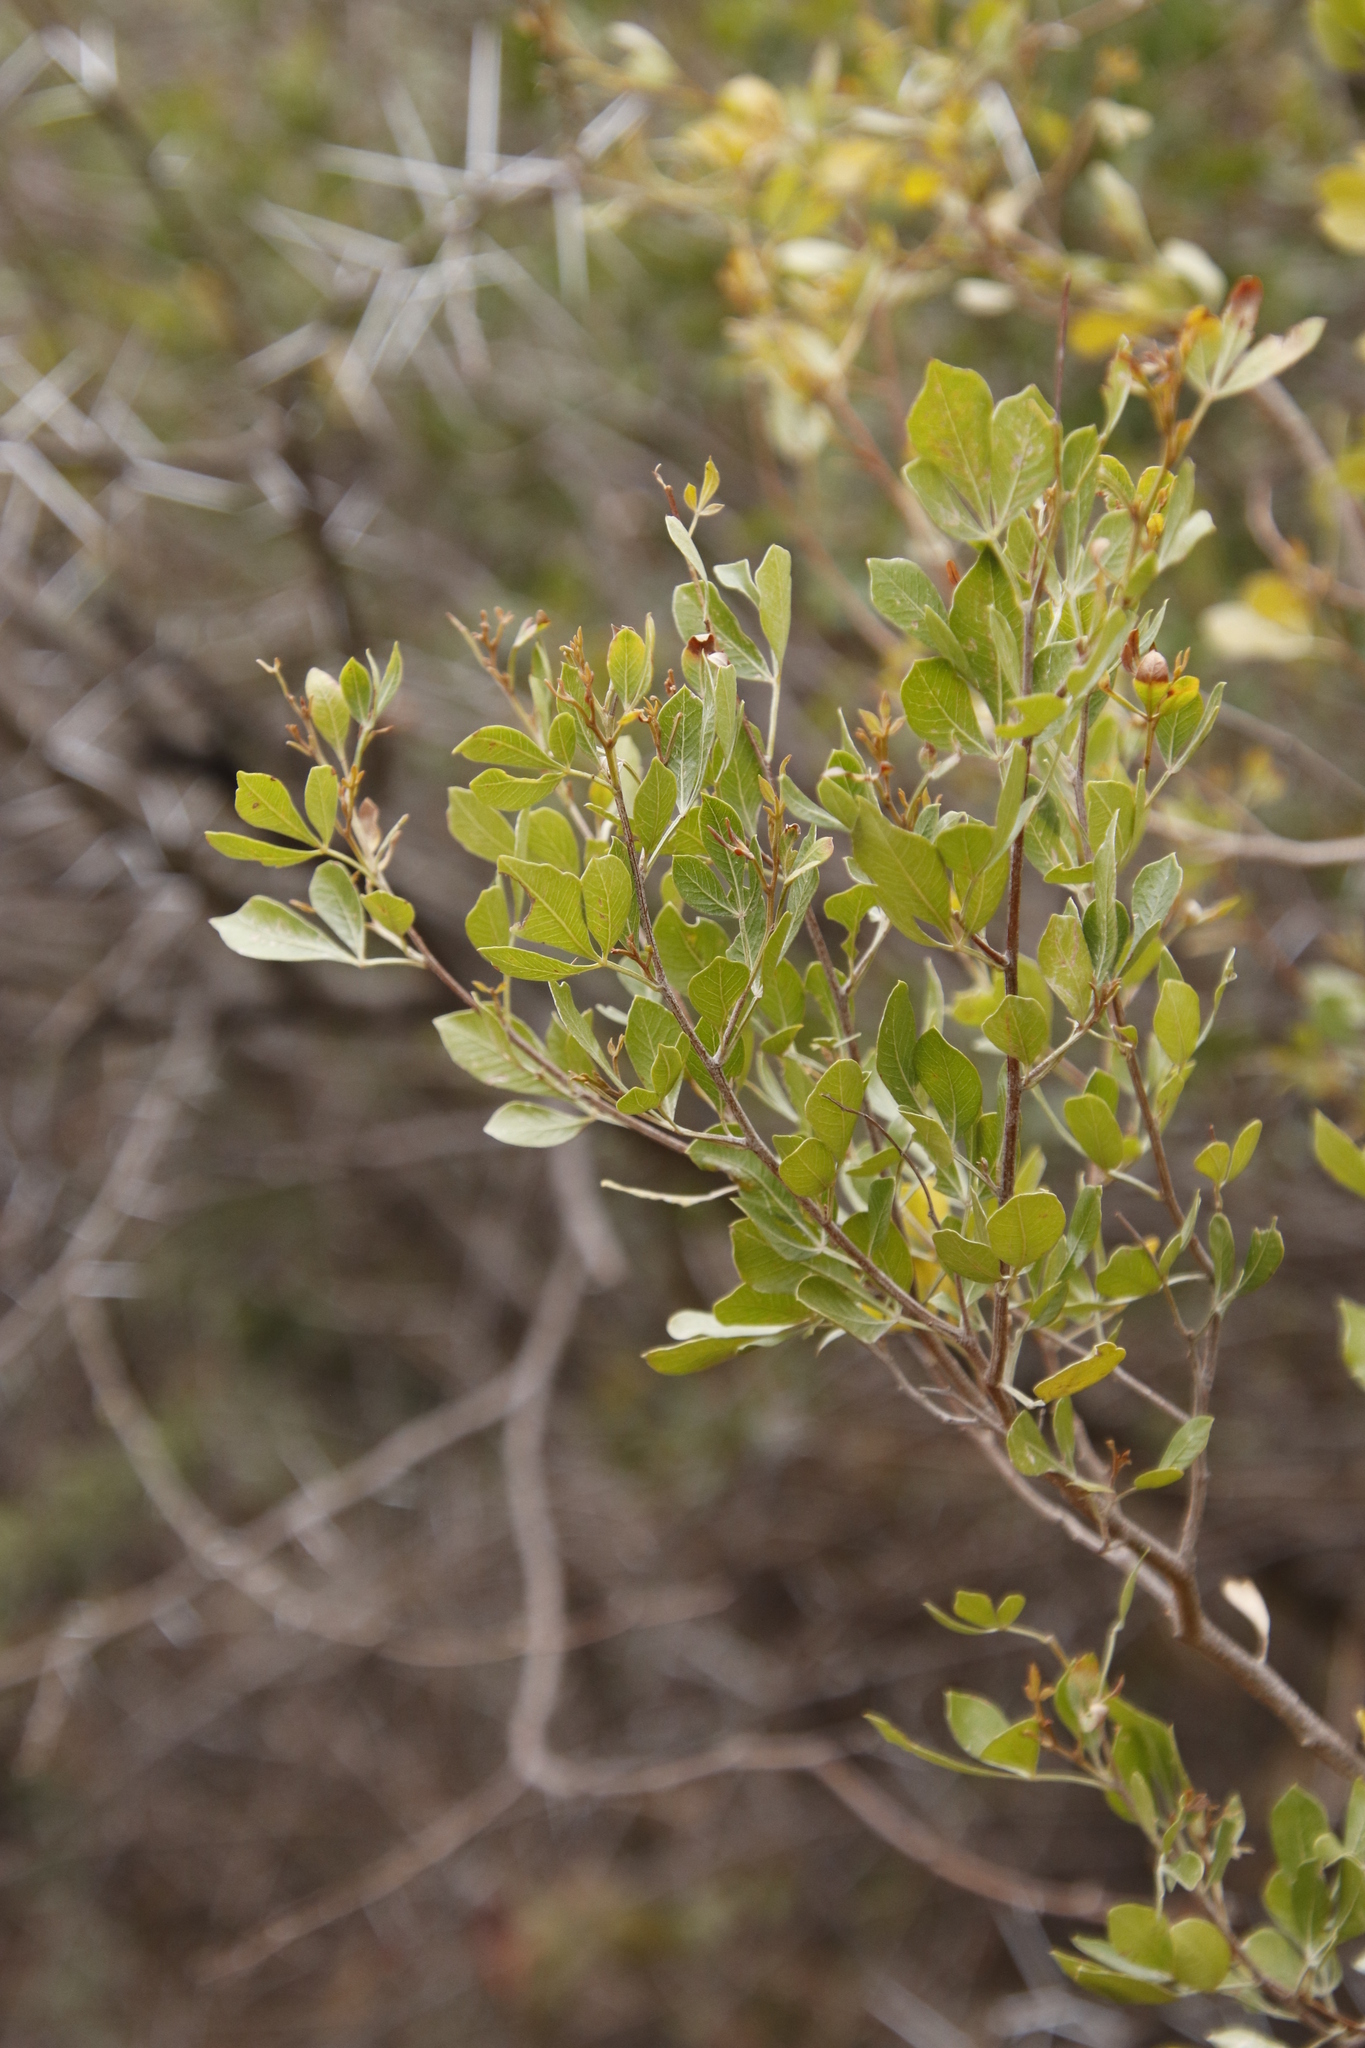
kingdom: Plantae
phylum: Tracheophyta
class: Magnoliopsida
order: Sapindales
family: Anacardiaceae
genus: Searsia
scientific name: Searsia pallens
